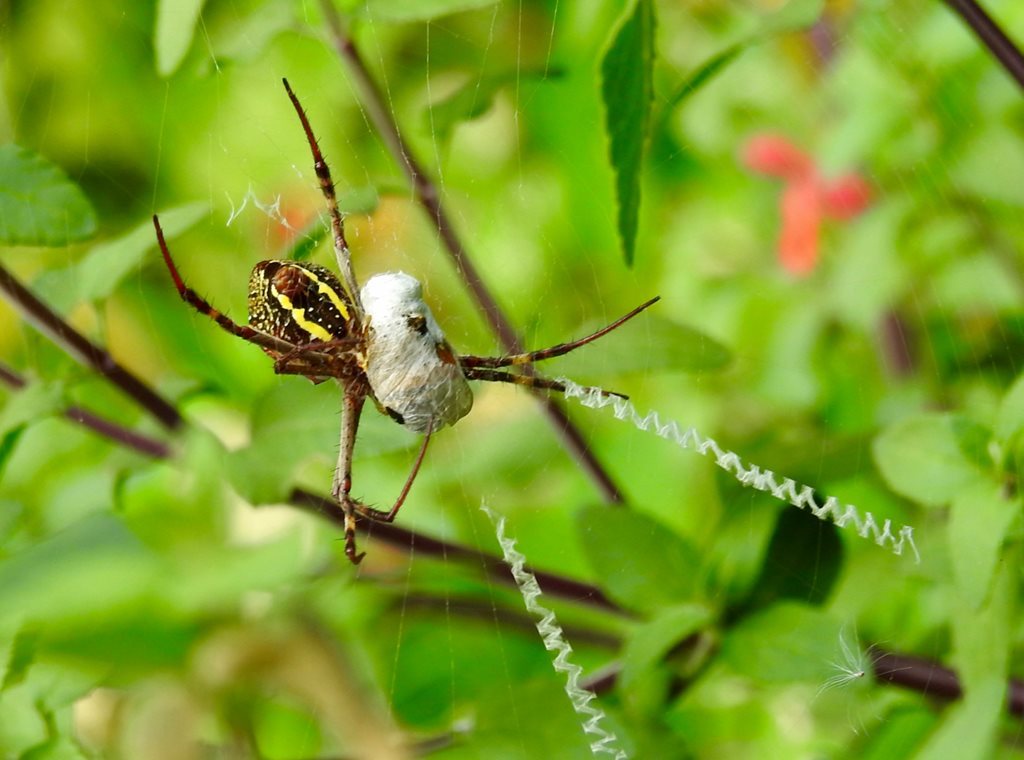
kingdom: Animalia
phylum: Arthropoda
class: Arachnida
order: Araneae
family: Araneidae
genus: Argiope
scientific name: Argiope keyserlingi
